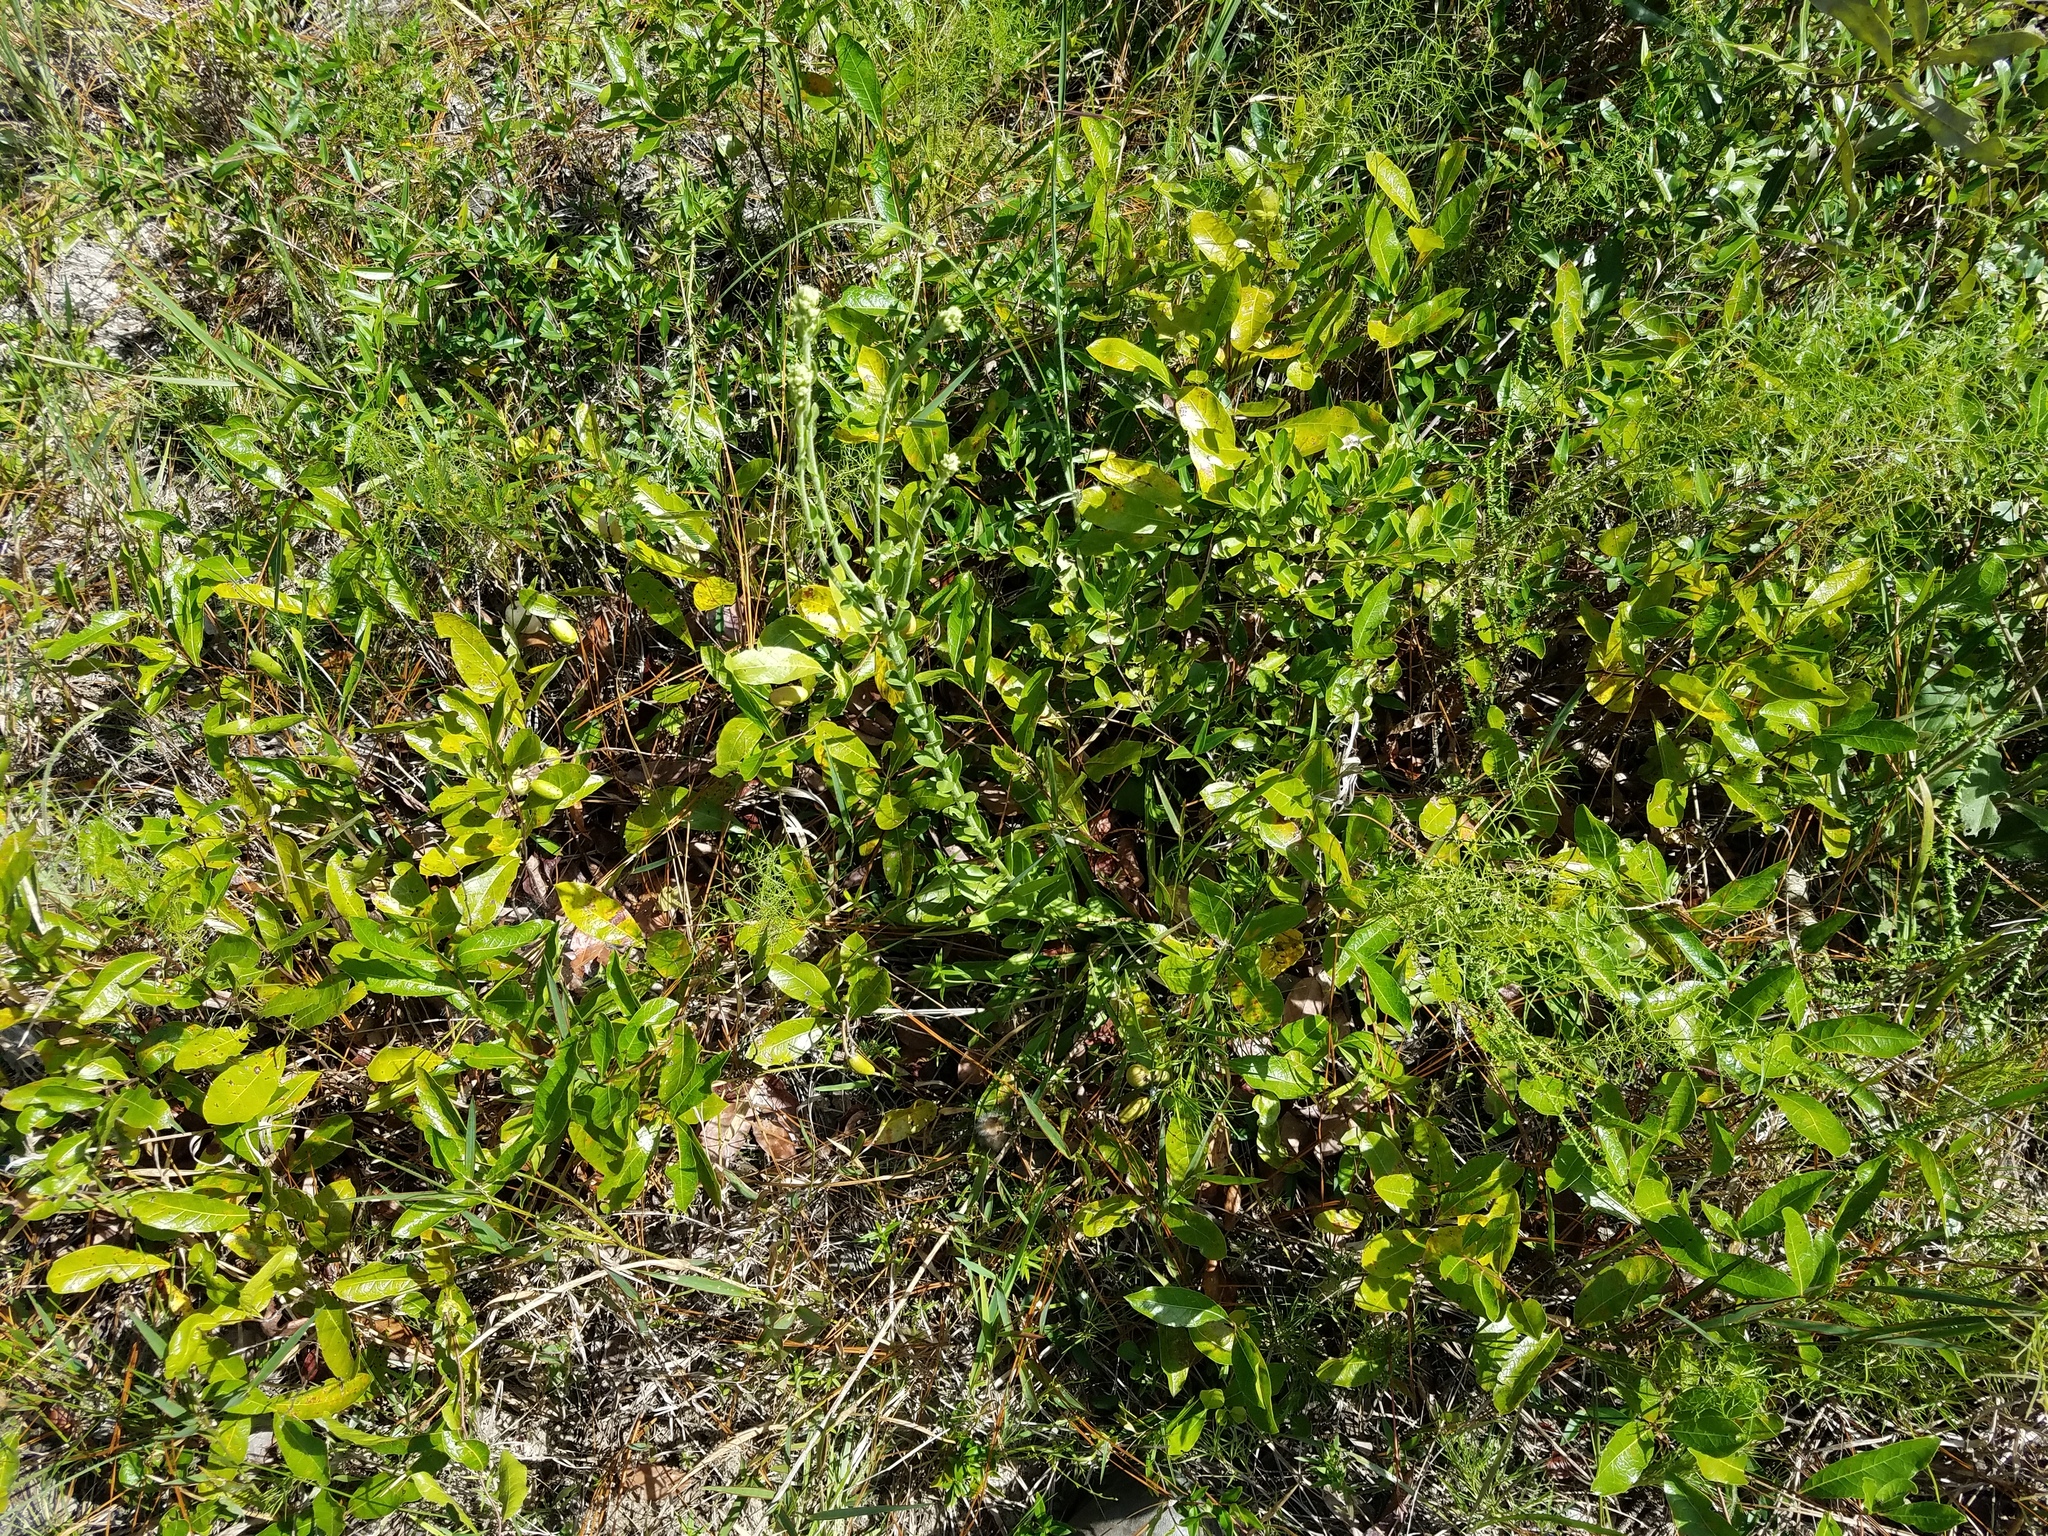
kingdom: Plantae
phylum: Tracheophyta
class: Magnoliopsida
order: Malpighiales
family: Chrysobalanaceae
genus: Geobalanus
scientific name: Geobalanus oblongifolius
